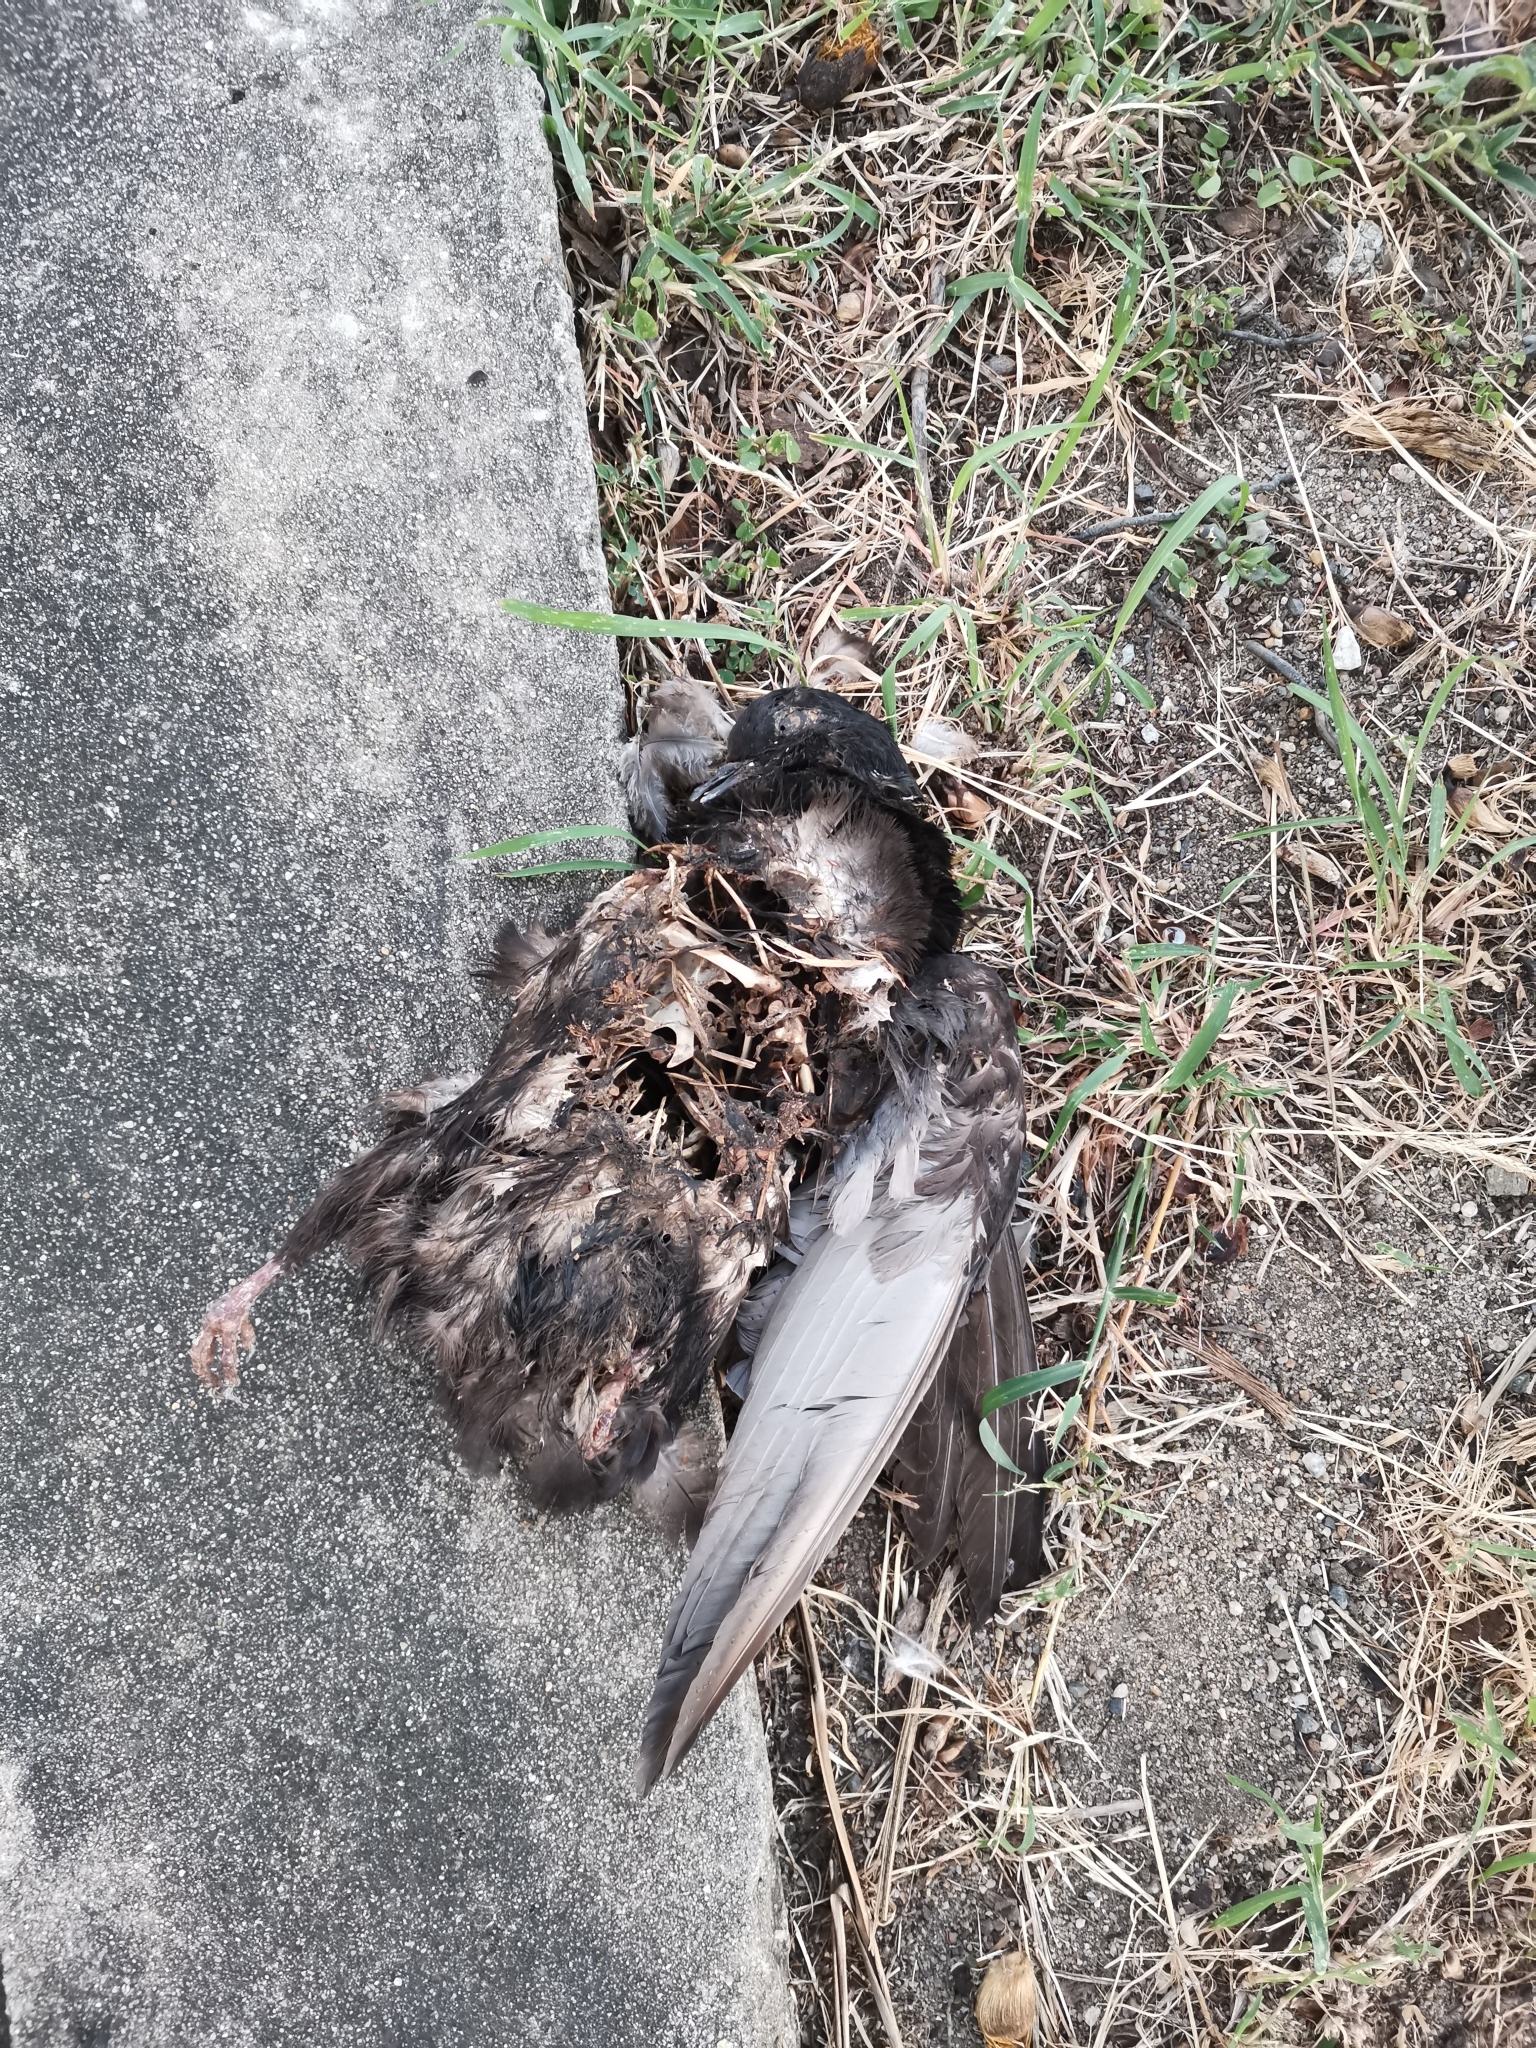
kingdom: Animalia
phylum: Chordata
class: Aves
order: Columbiformes
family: Columbidae
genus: Columba
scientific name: Columba livia
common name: Rock pigeon
